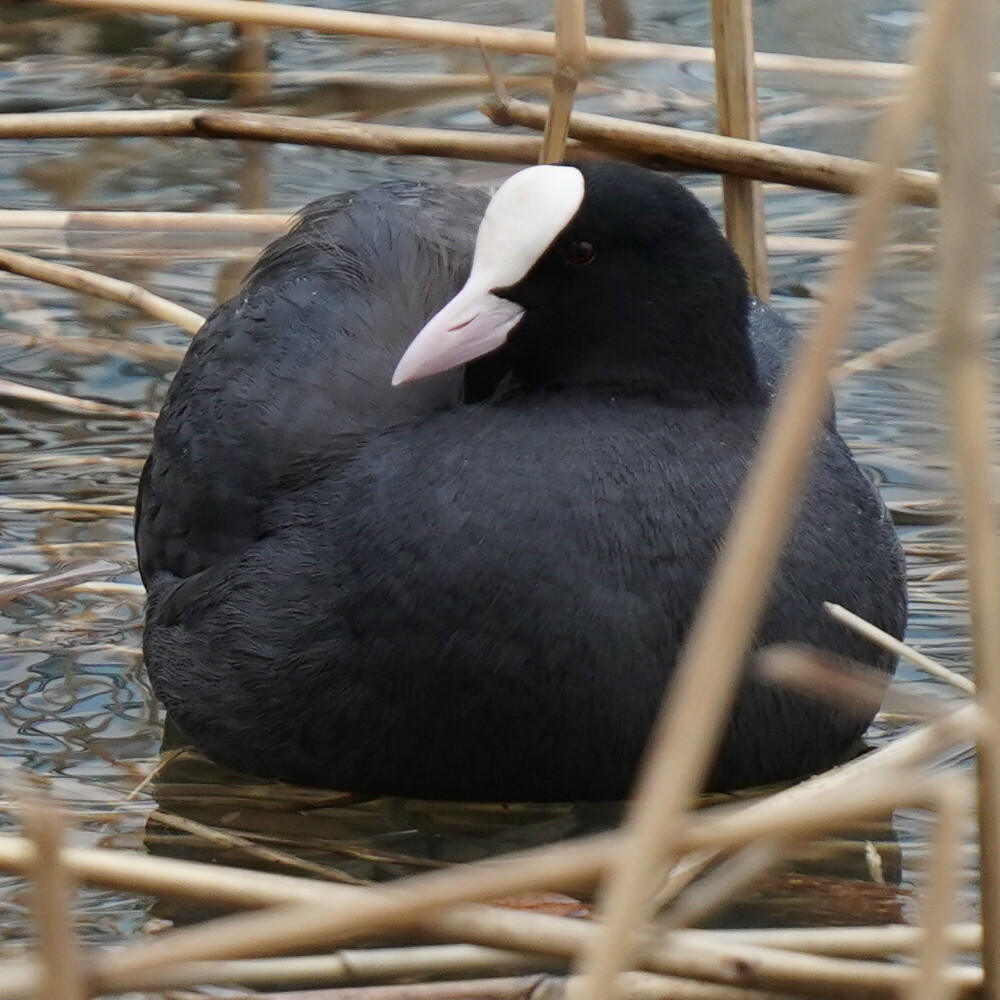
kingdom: Animalia
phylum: Chordata
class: Aves
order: Gruiformes
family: Rallidae
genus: Fulica
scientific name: Fulica atra
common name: Eurasian coot
